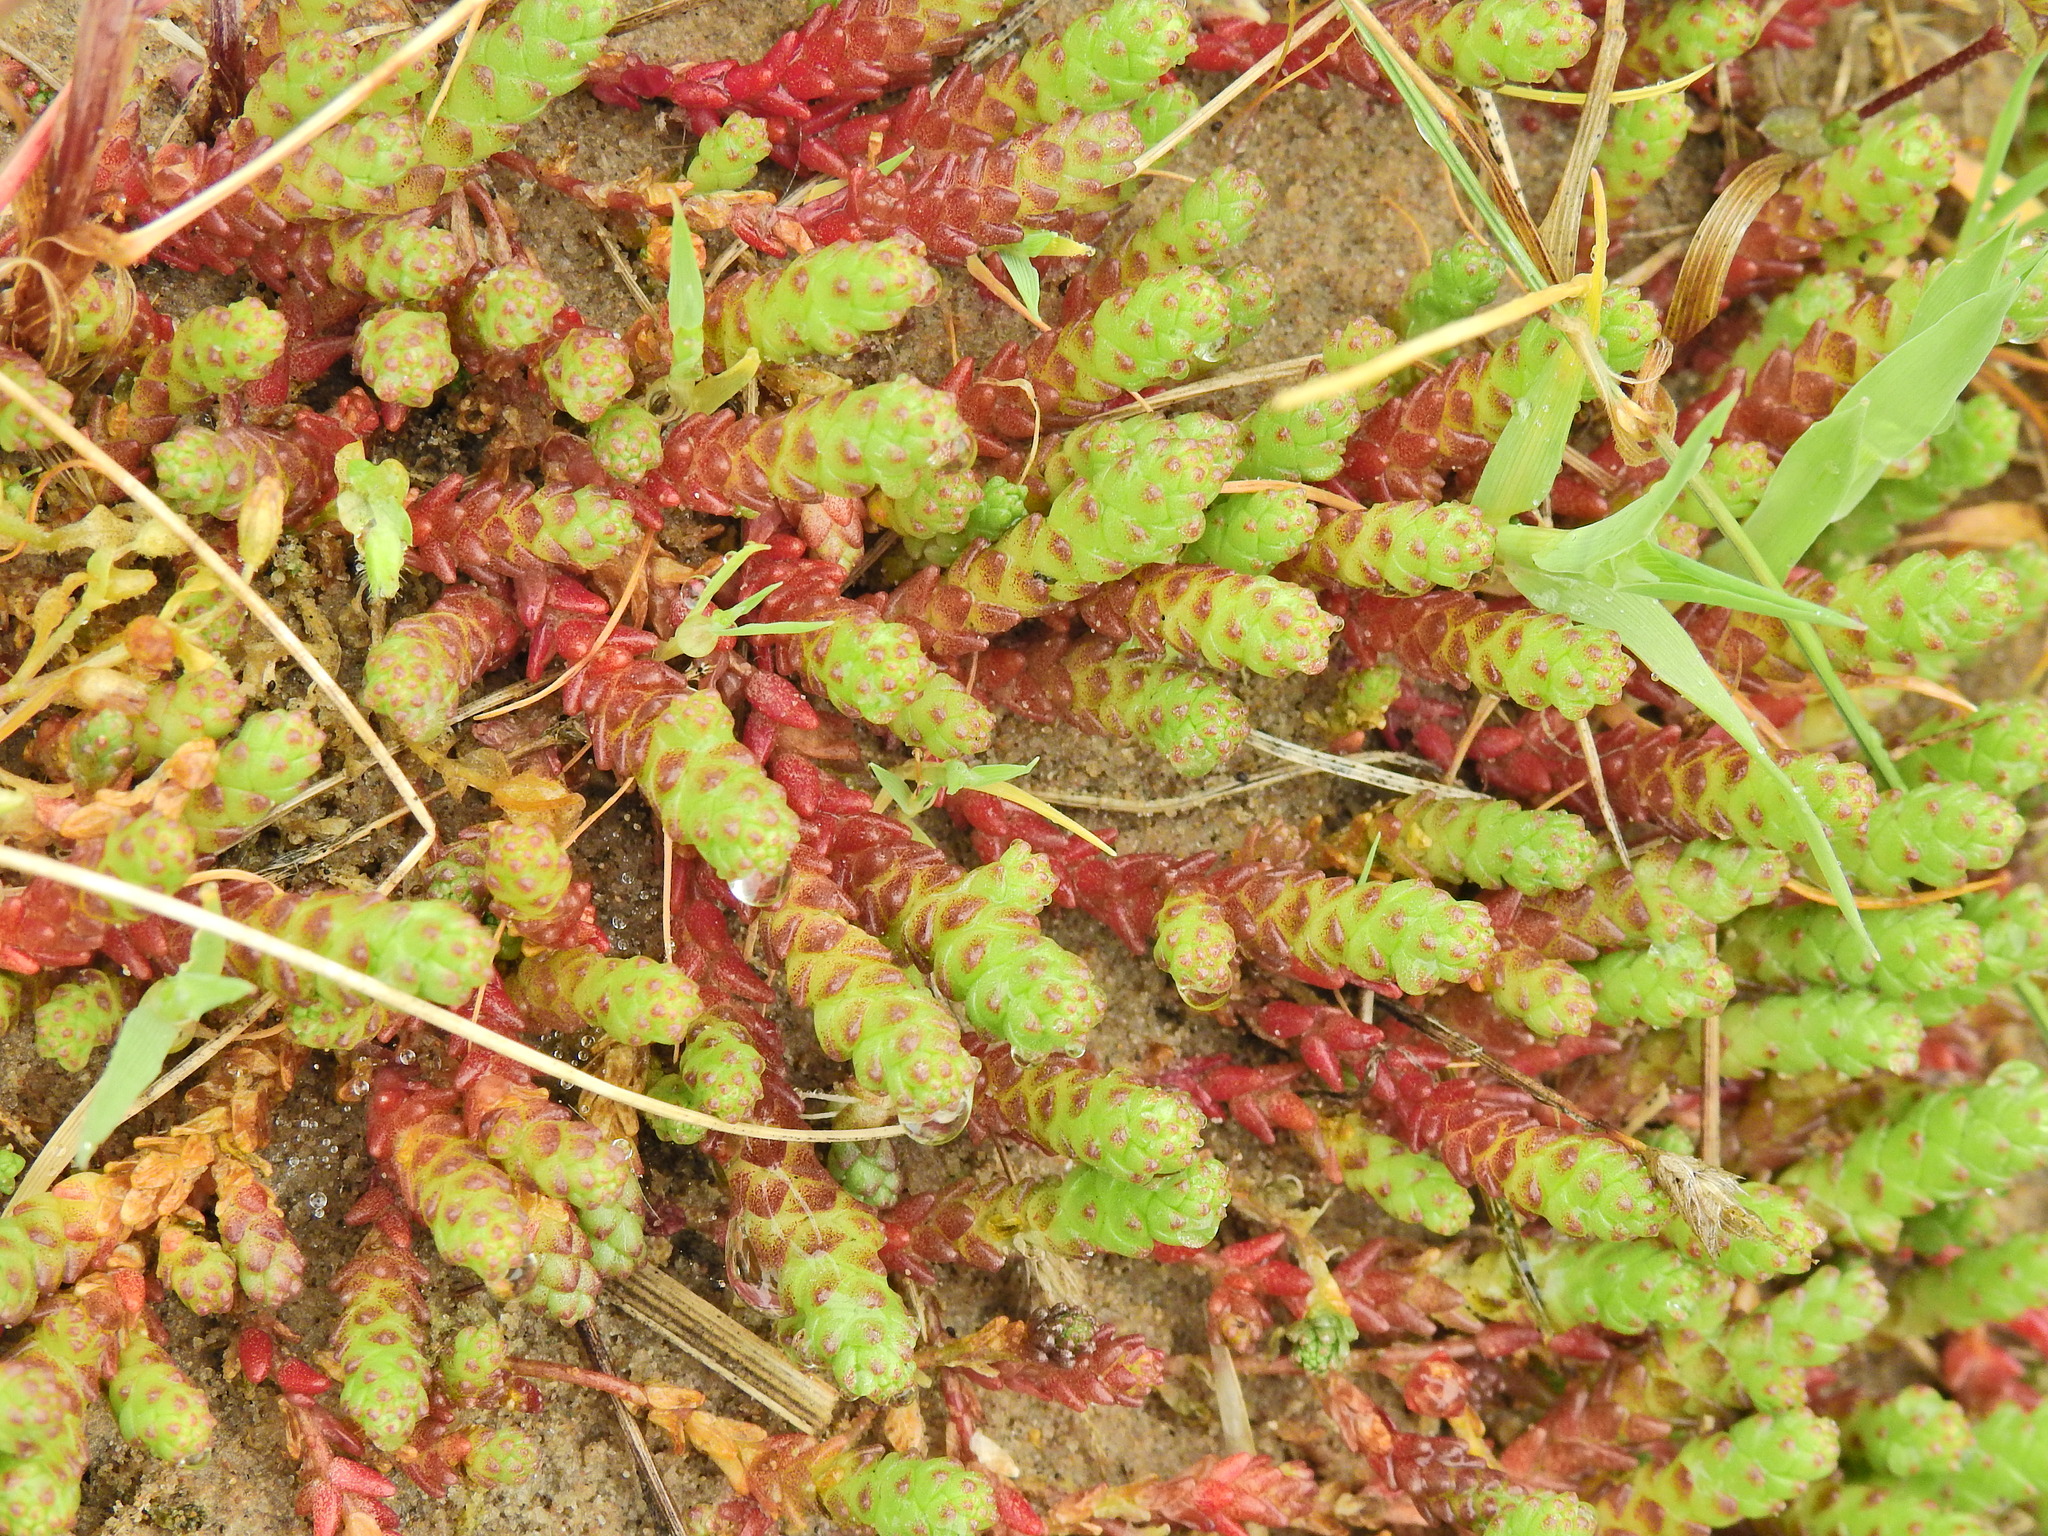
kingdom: Plantae
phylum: Tracheophyta
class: Magnoliopsida
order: Saxifragales
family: Crassulaceae
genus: Sedum
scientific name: Sedum acre
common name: Biting stonecrop
